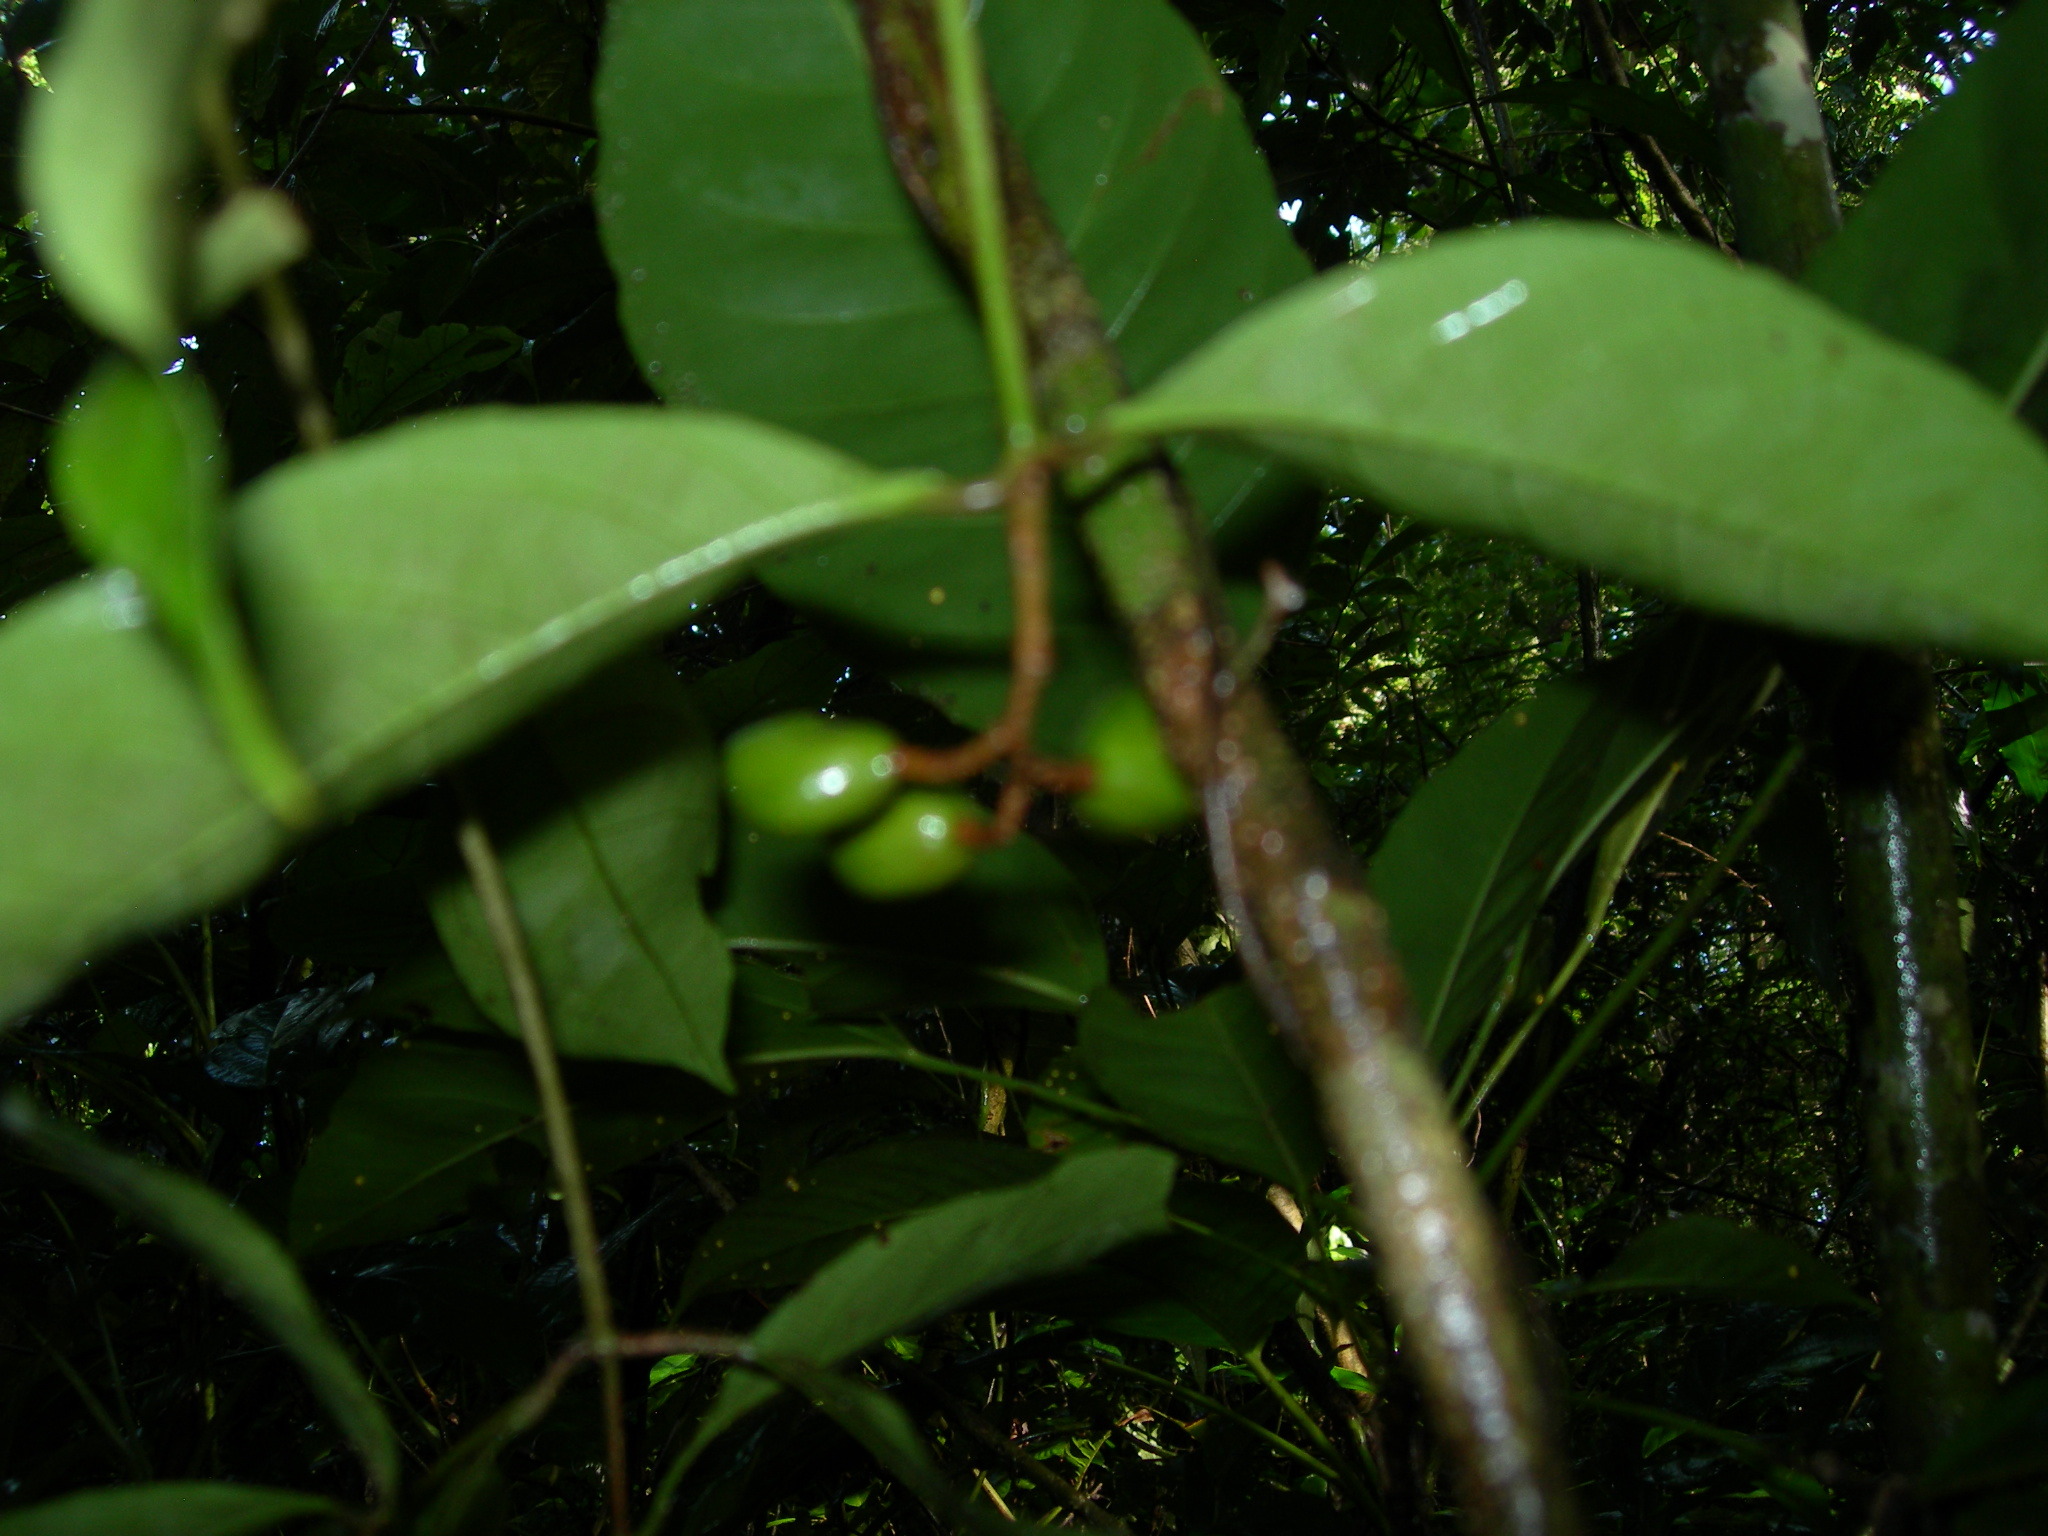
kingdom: Plantae
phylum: Tracheophyta
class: Magnoliopsida
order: Malpighiales
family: Violaceae
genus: Rinorea
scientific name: Rinorea hummelii
